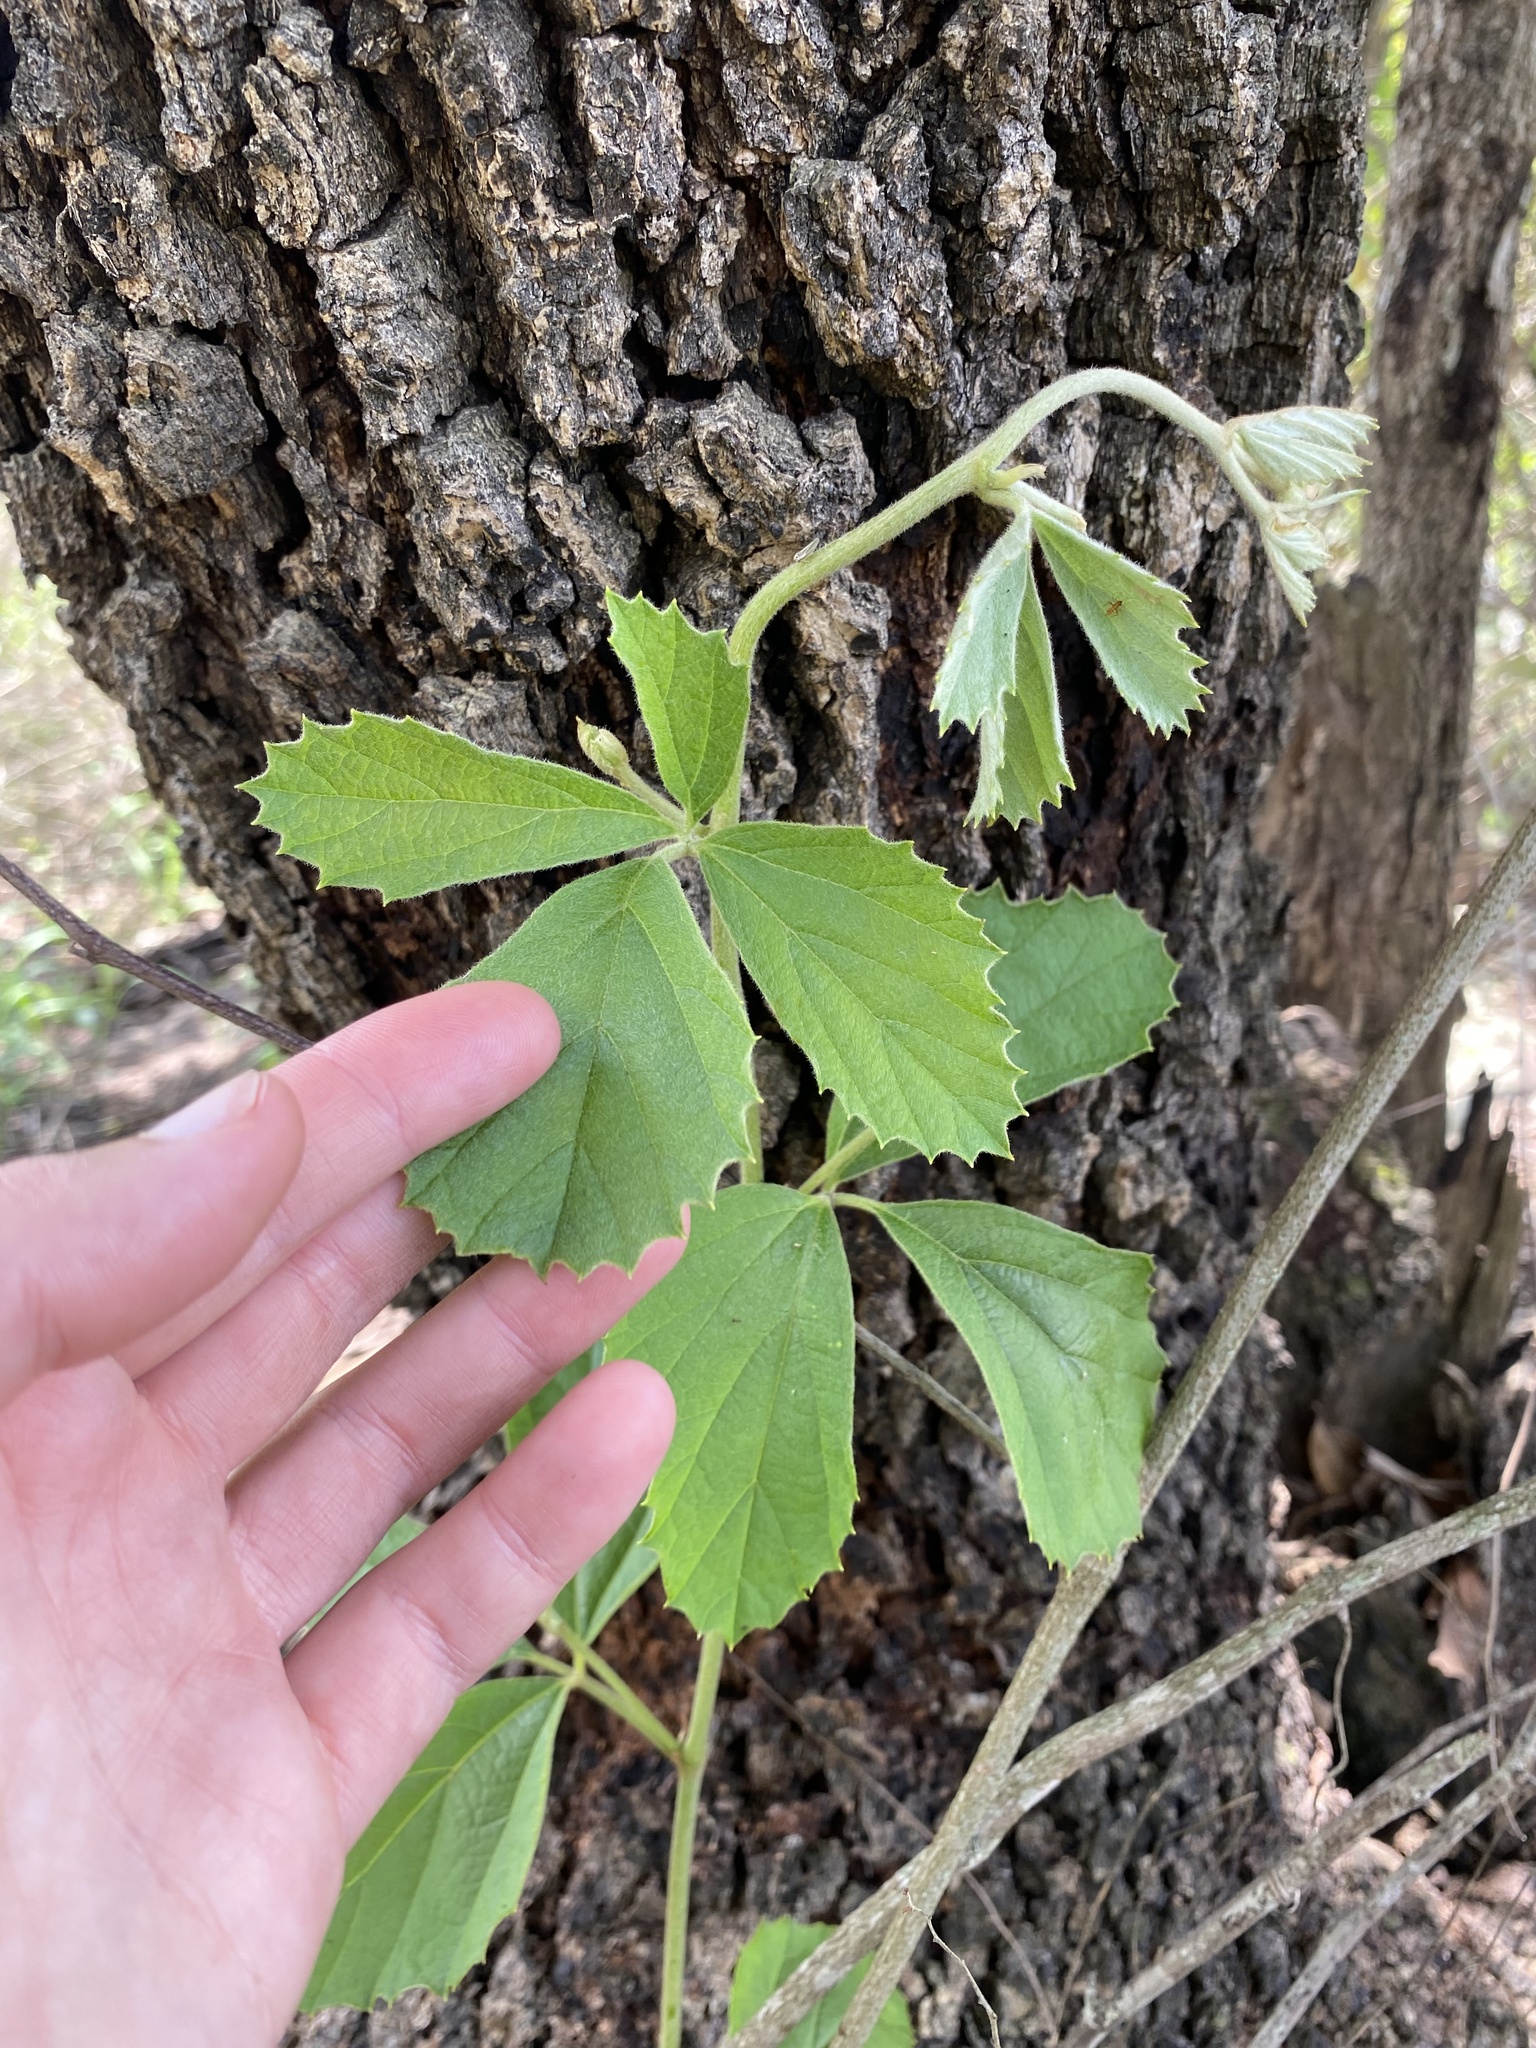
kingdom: Plantae
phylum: Tracheophyta
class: Magnoliopsida
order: Vitales
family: Vitaceae
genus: Rhoicissus
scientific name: Rhoicissus tridentata
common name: Common forest grape
